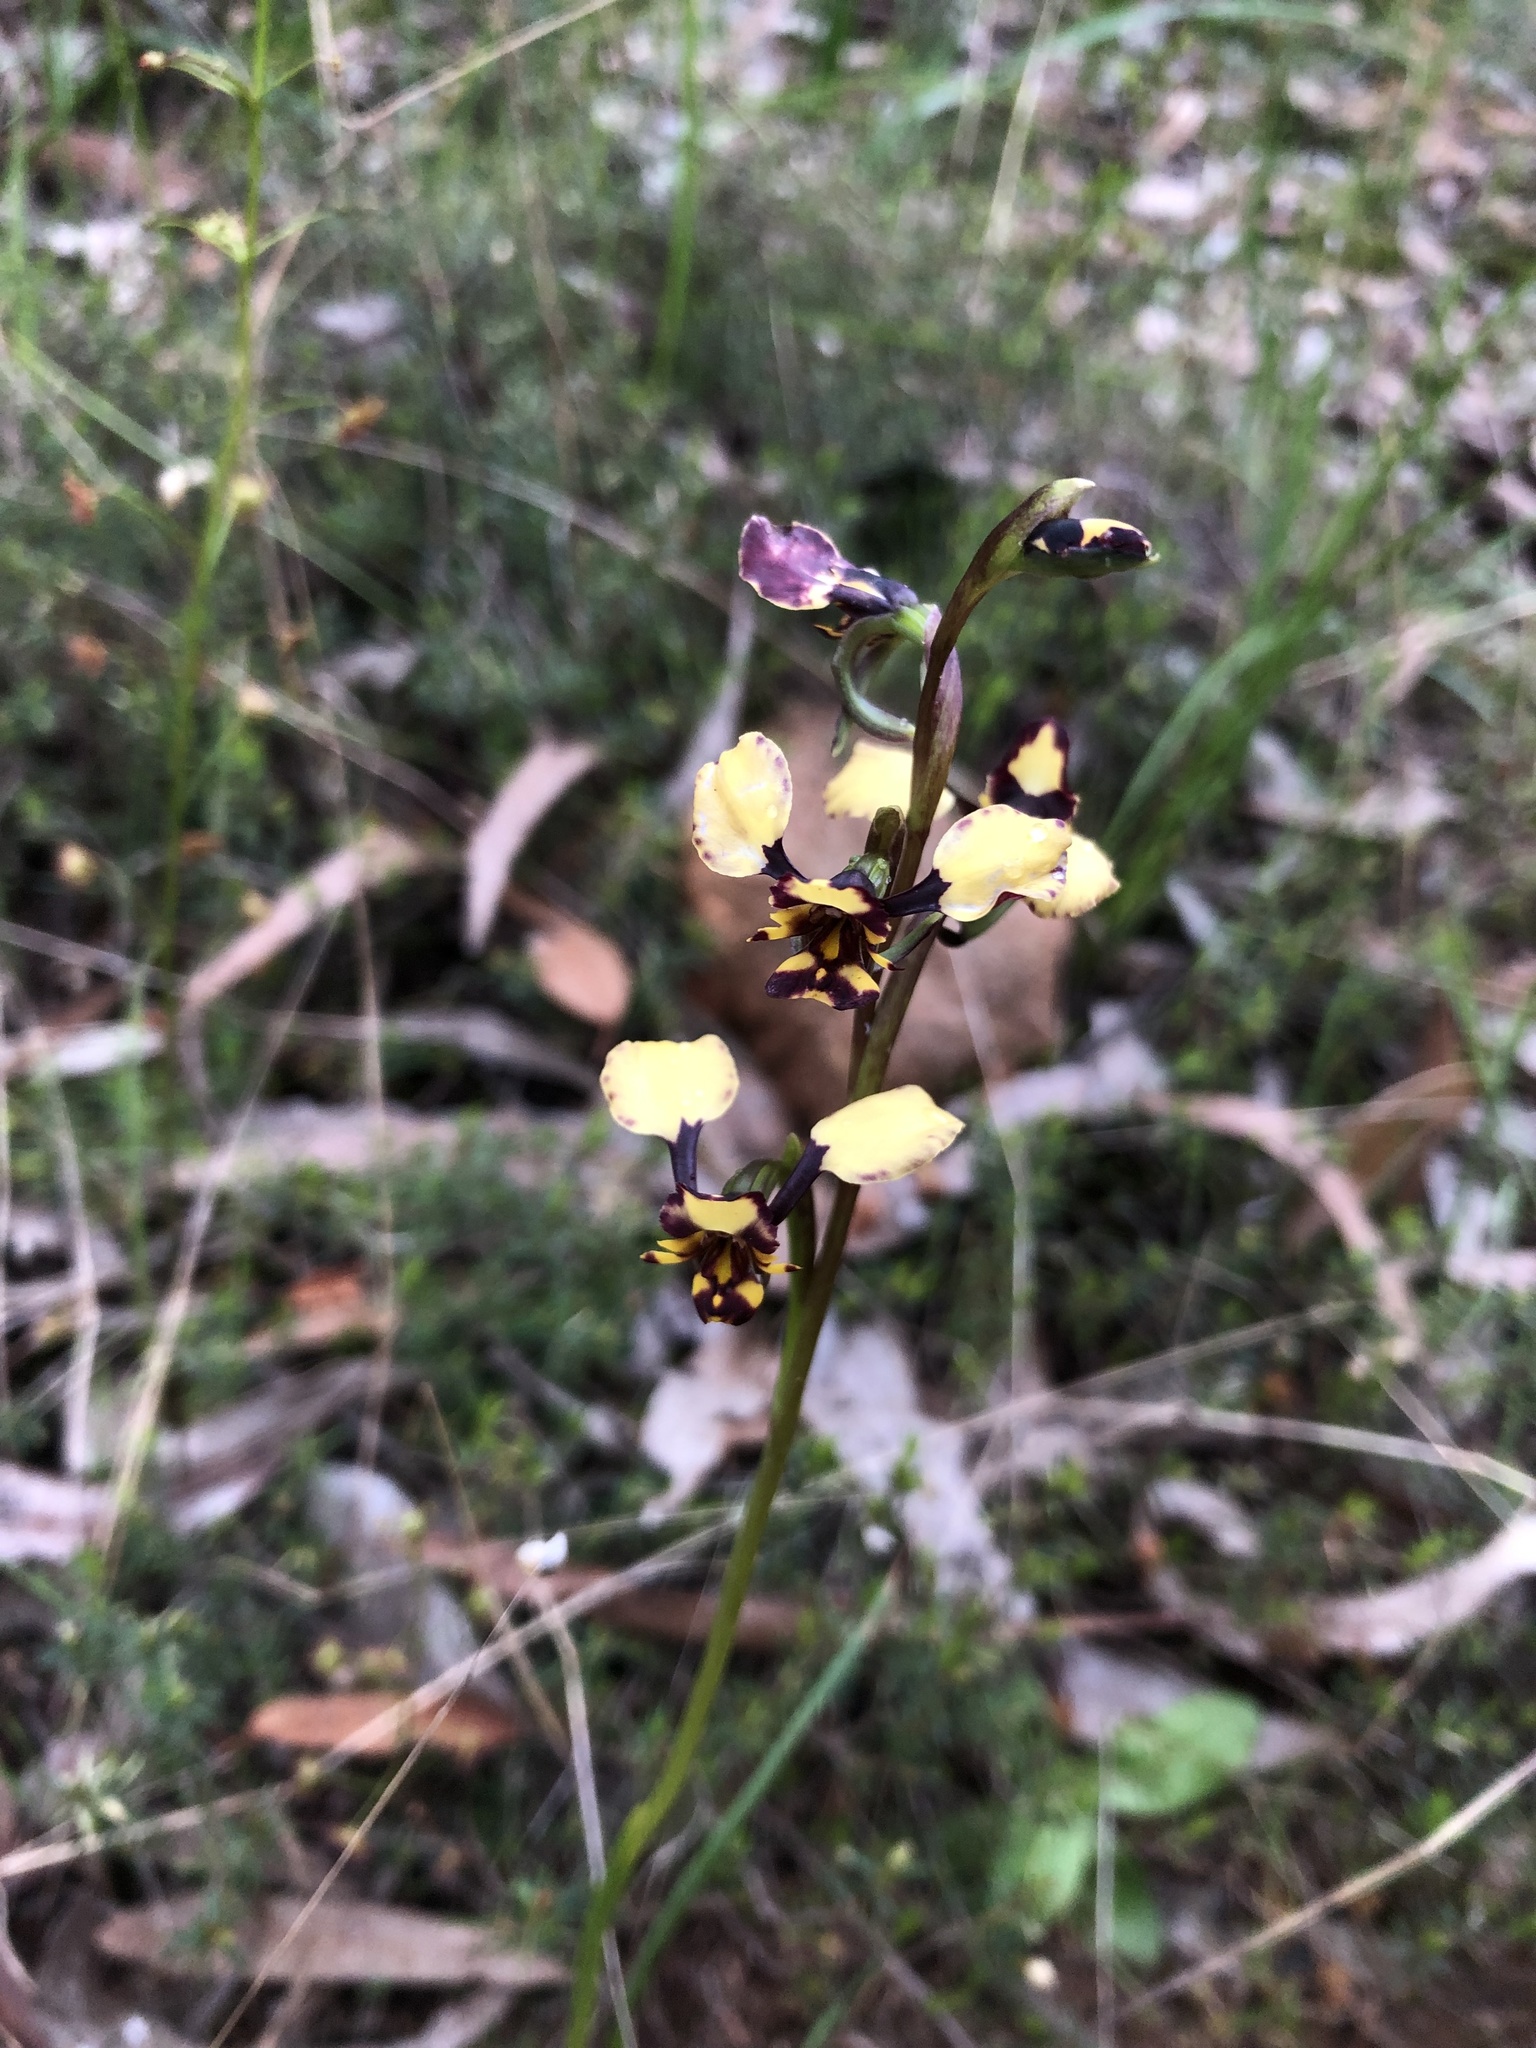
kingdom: Plantae
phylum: Tracheophyta
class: Liliopsida
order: Asparagales
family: Orchidaceae
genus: Diuris
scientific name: Diuris pardina
